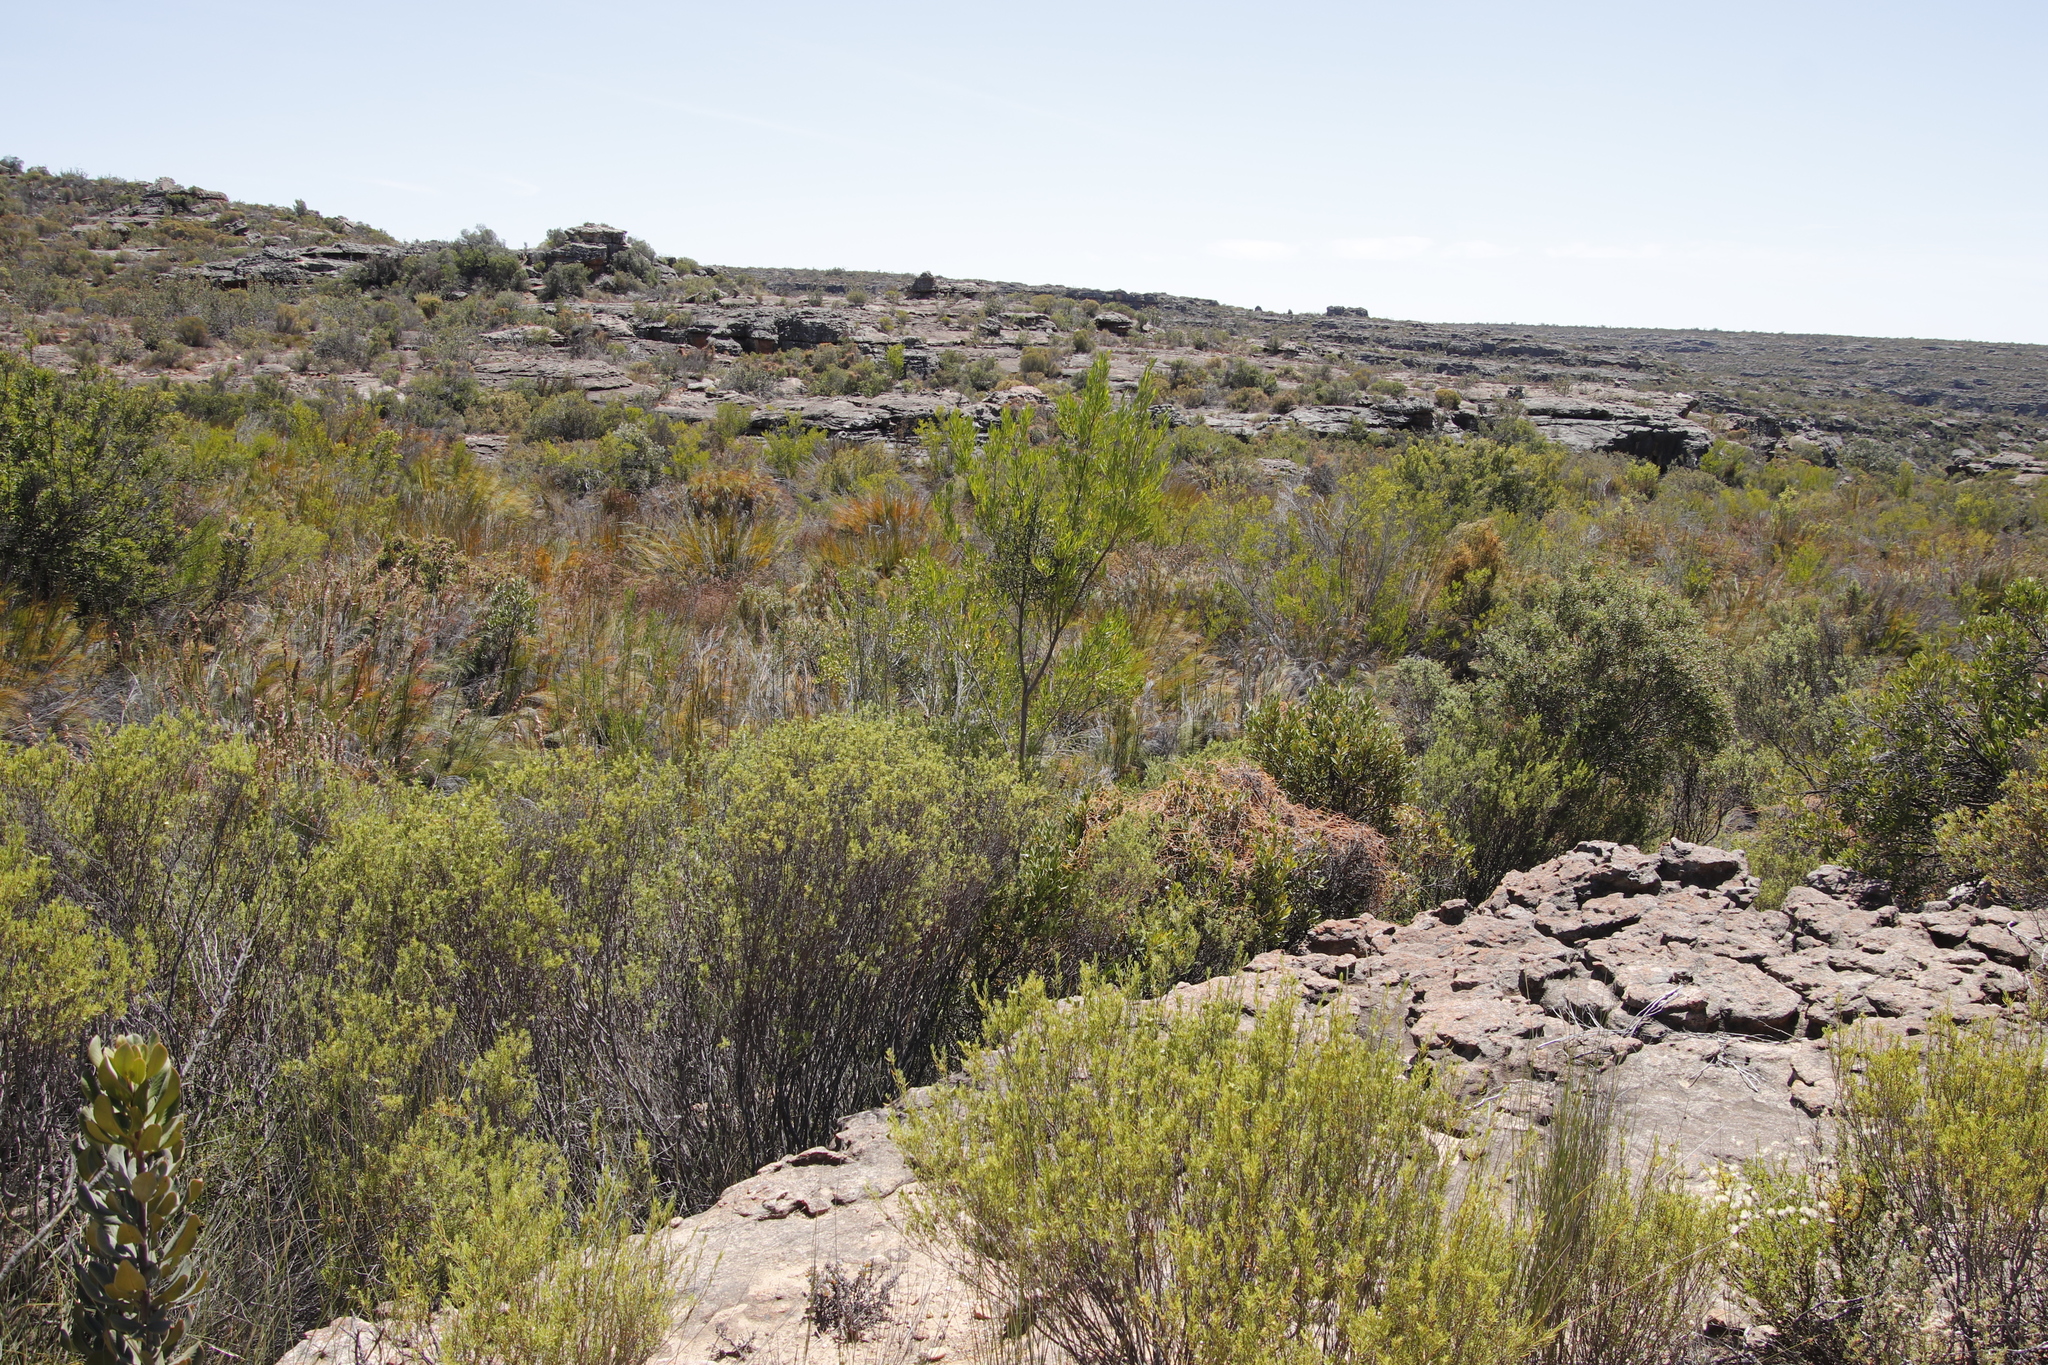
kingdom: Plantae
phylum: Tracheophyta
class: Magnoliopsida
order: Sapindales
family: Sapindaceae
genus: Dodonaea
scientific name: Dodonaea viscosa
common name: Hopbush
